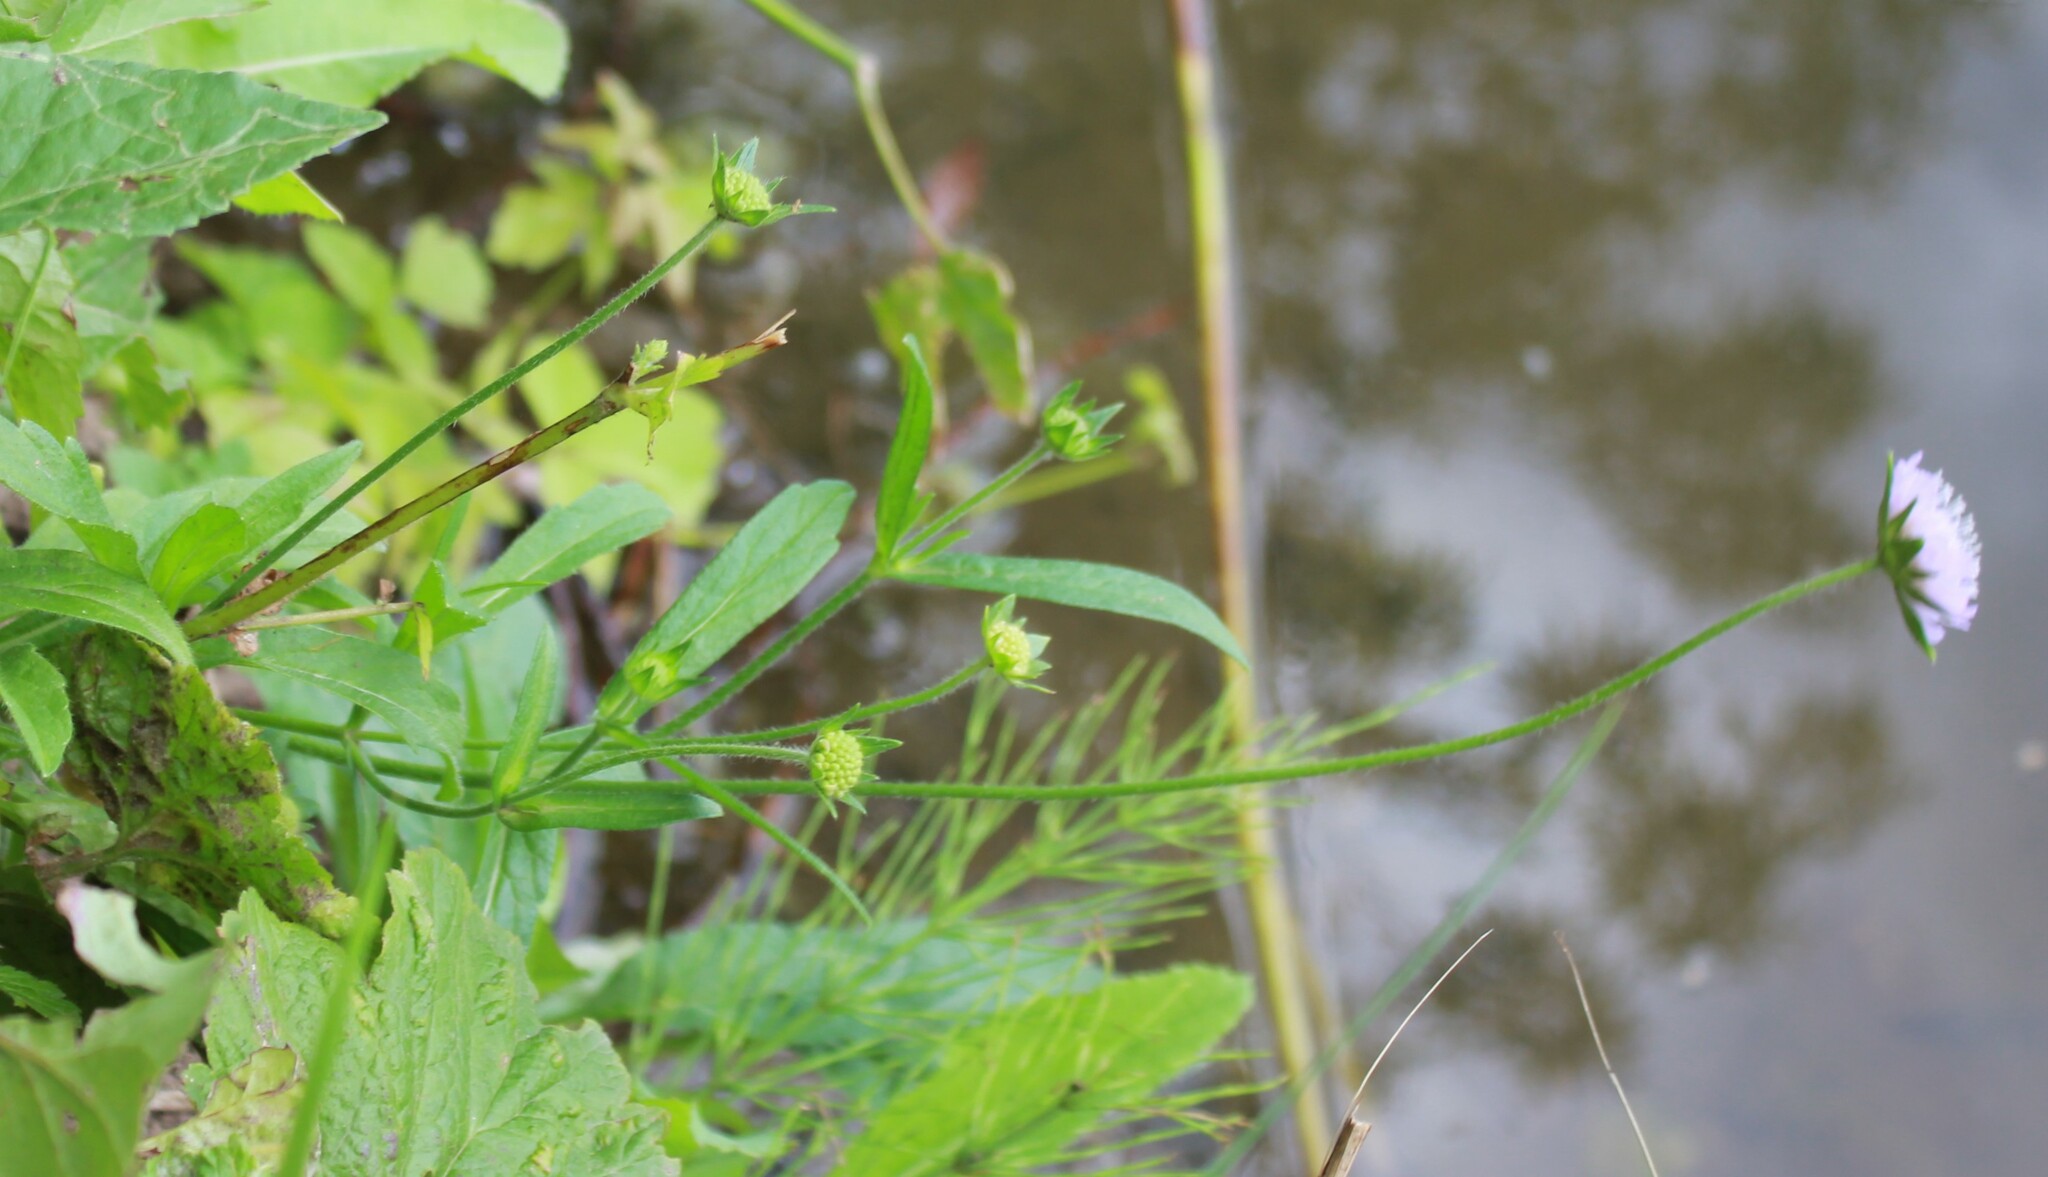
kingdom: Plantae
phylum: Tracheophyta
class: Magnoliopsida
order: Dipsacales
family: Caprifoliaceae
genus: Knautia
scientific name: Knautia arvensis
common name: Field scabiosa
